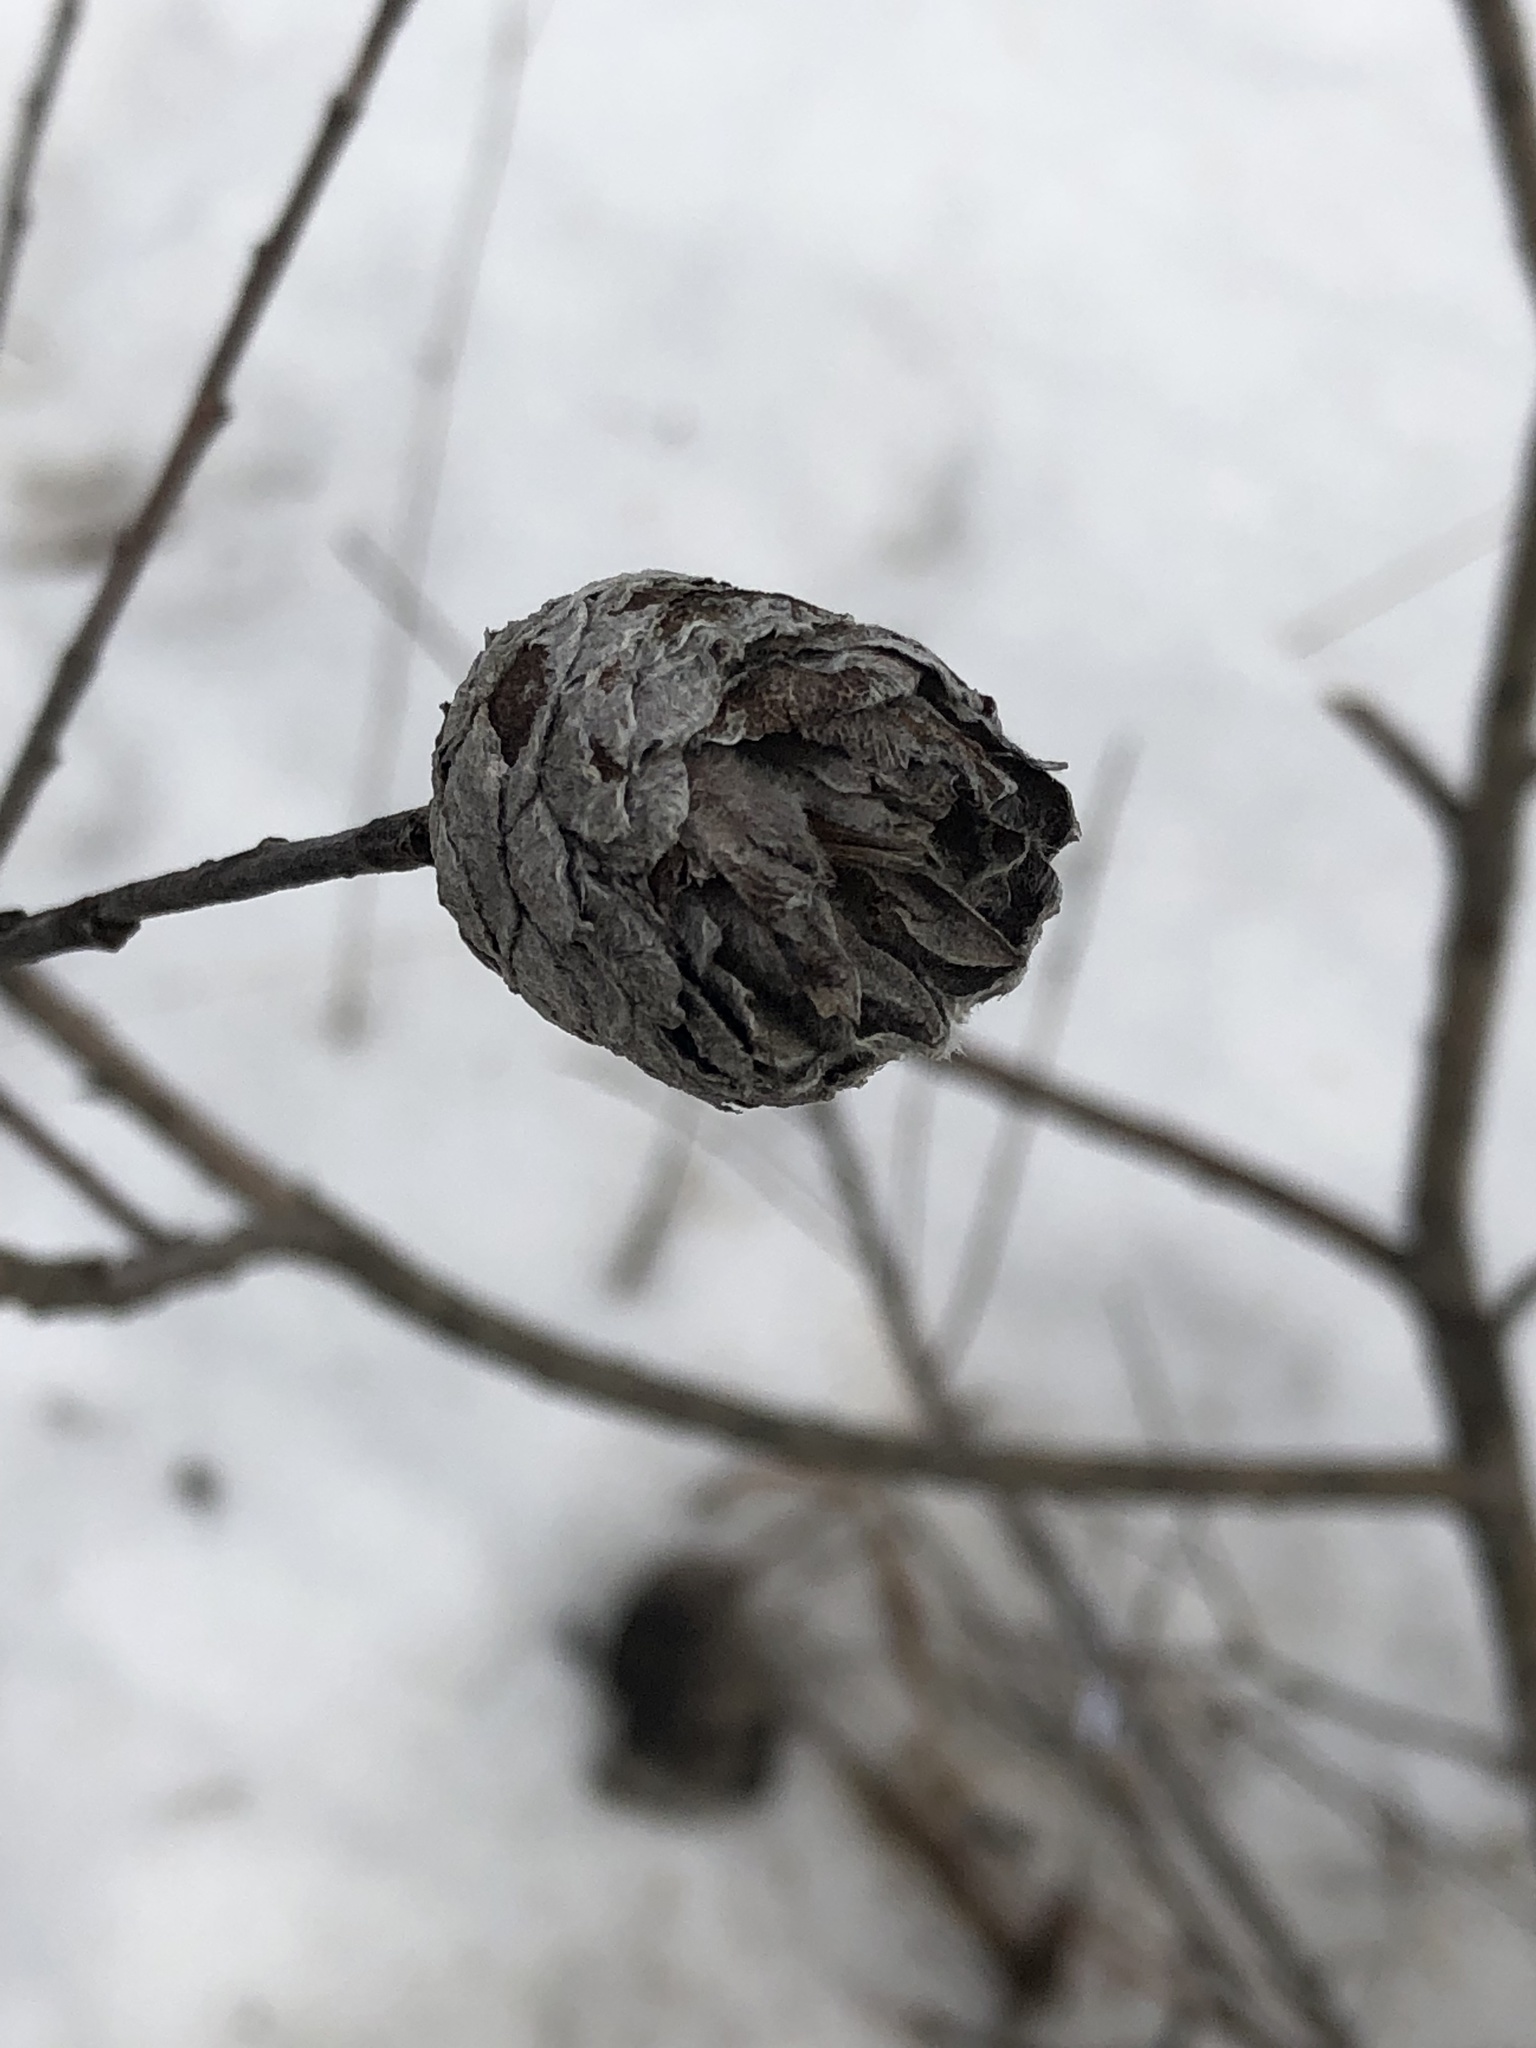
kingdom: Animalia
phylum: Arthropoda
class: Insecta
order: Diptera
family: Cecidomyiidae
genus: Rabdophaga
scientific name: Rabdophaga strobiloides
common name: Willow pinecone gall midge
